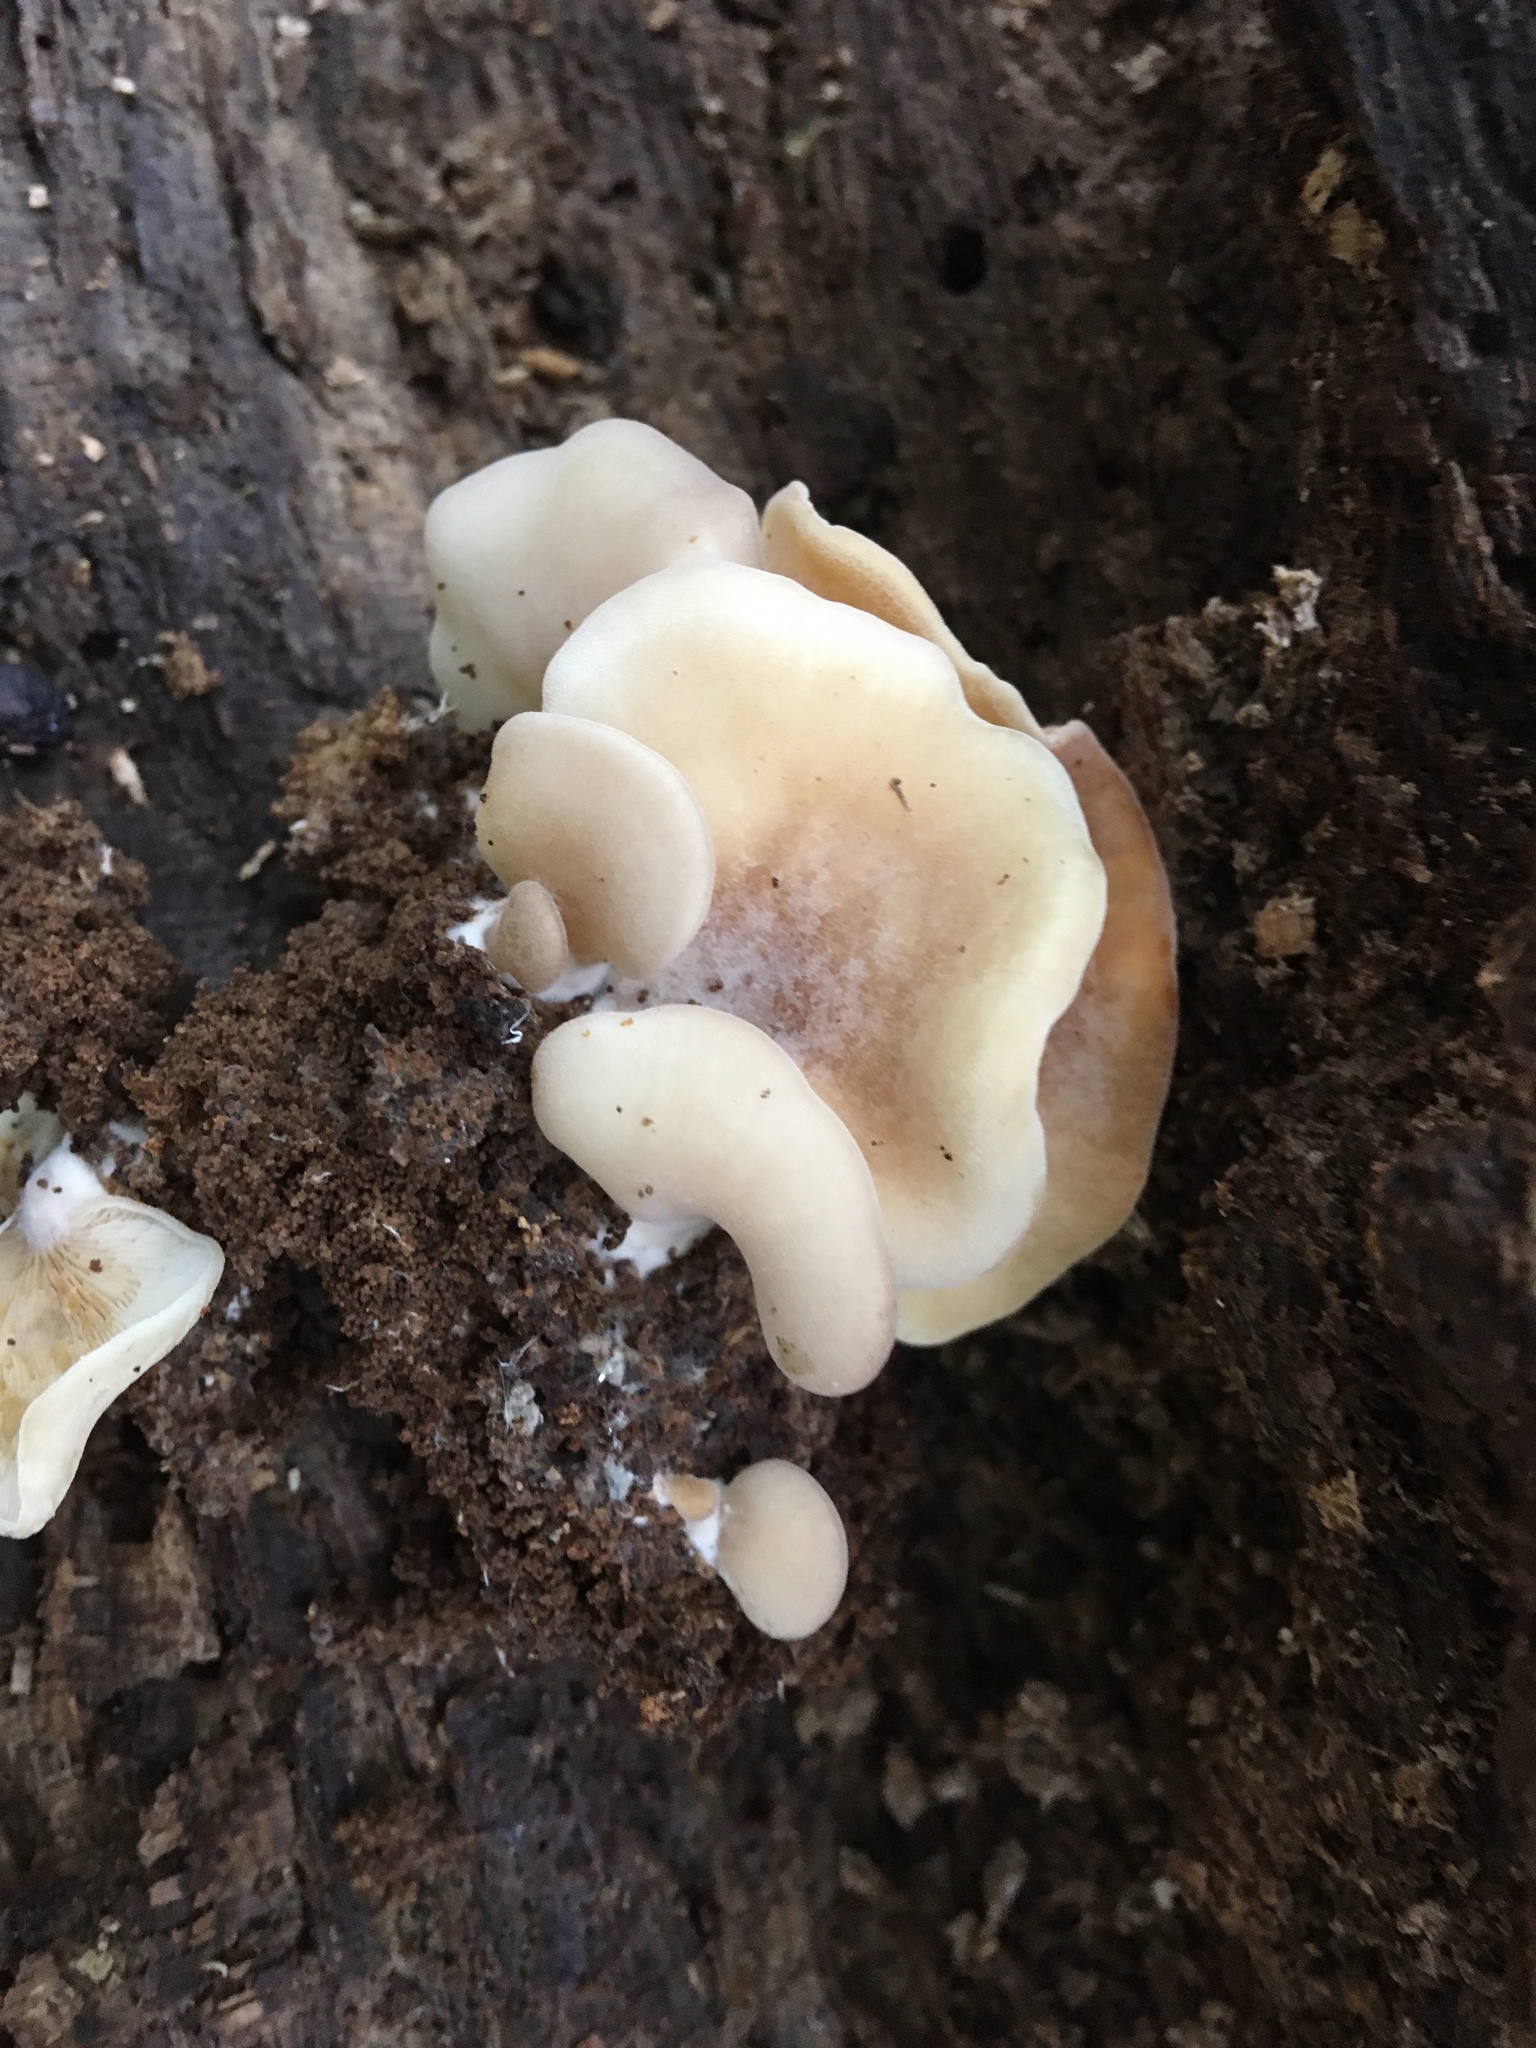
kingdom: Fungi
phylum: Basidiomycota
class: Agaricomycetes
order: Russulales
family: Auriscalpiaceae
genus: Lentinellus
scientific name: Lentinellus ursinus
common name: Bear lentinus
